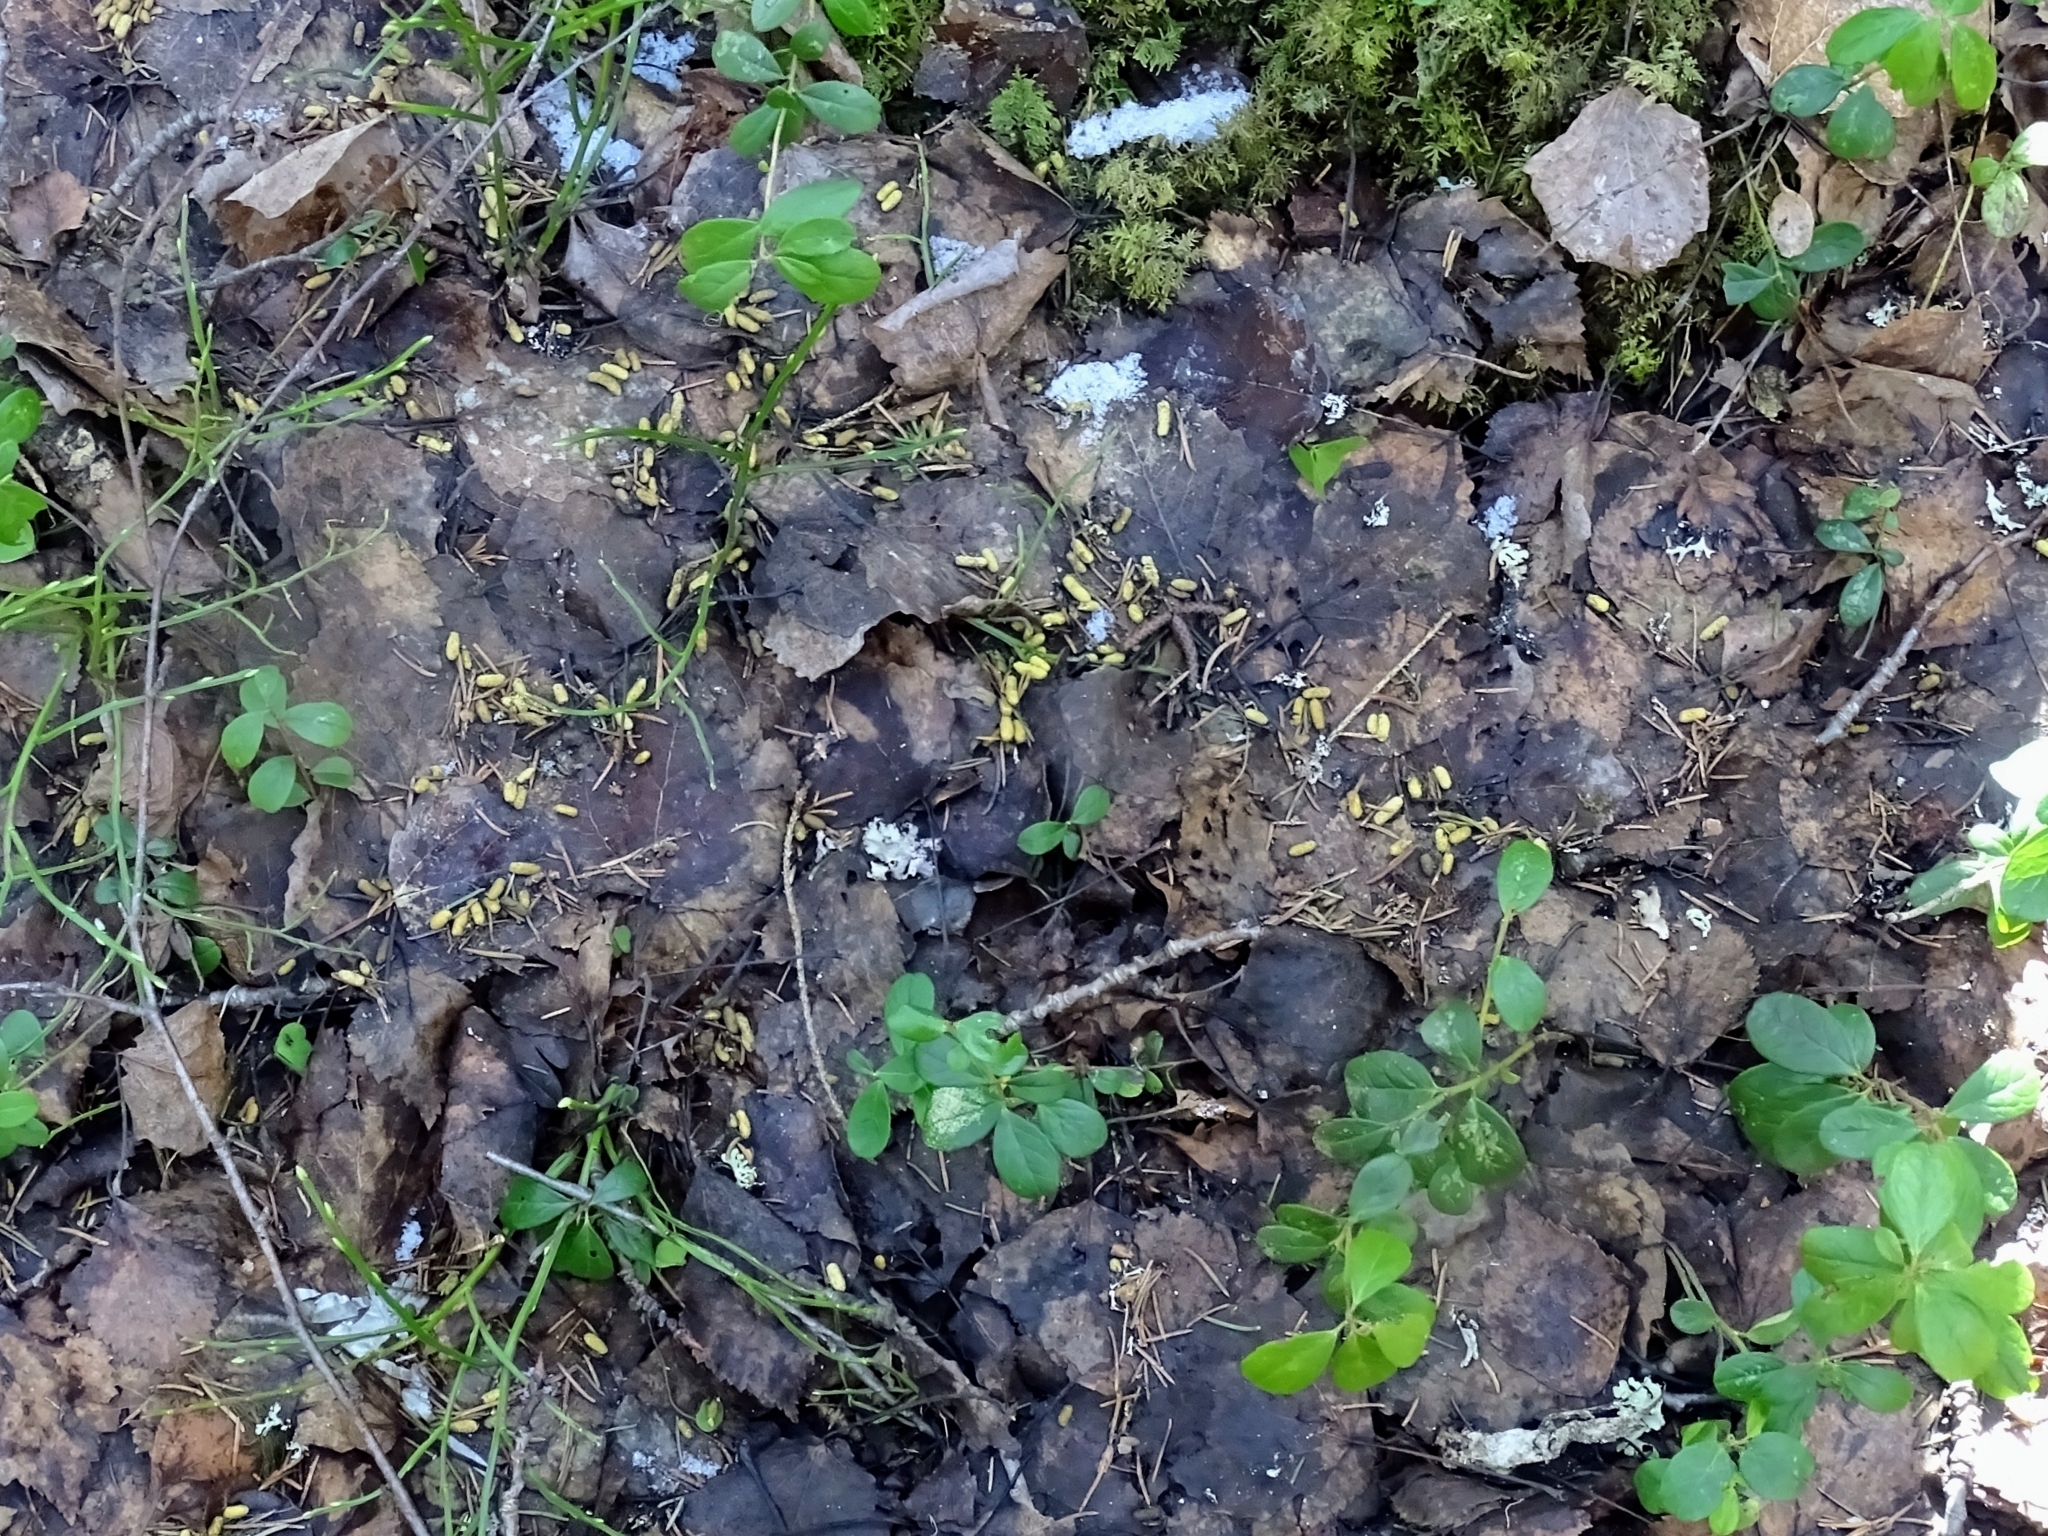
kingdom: Animalia
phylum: Chordata
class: Mammalia
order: Rodentia
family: Sciuridae
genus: Pteromys
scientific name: Pteromys volans
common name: Siberian flying squirrel
